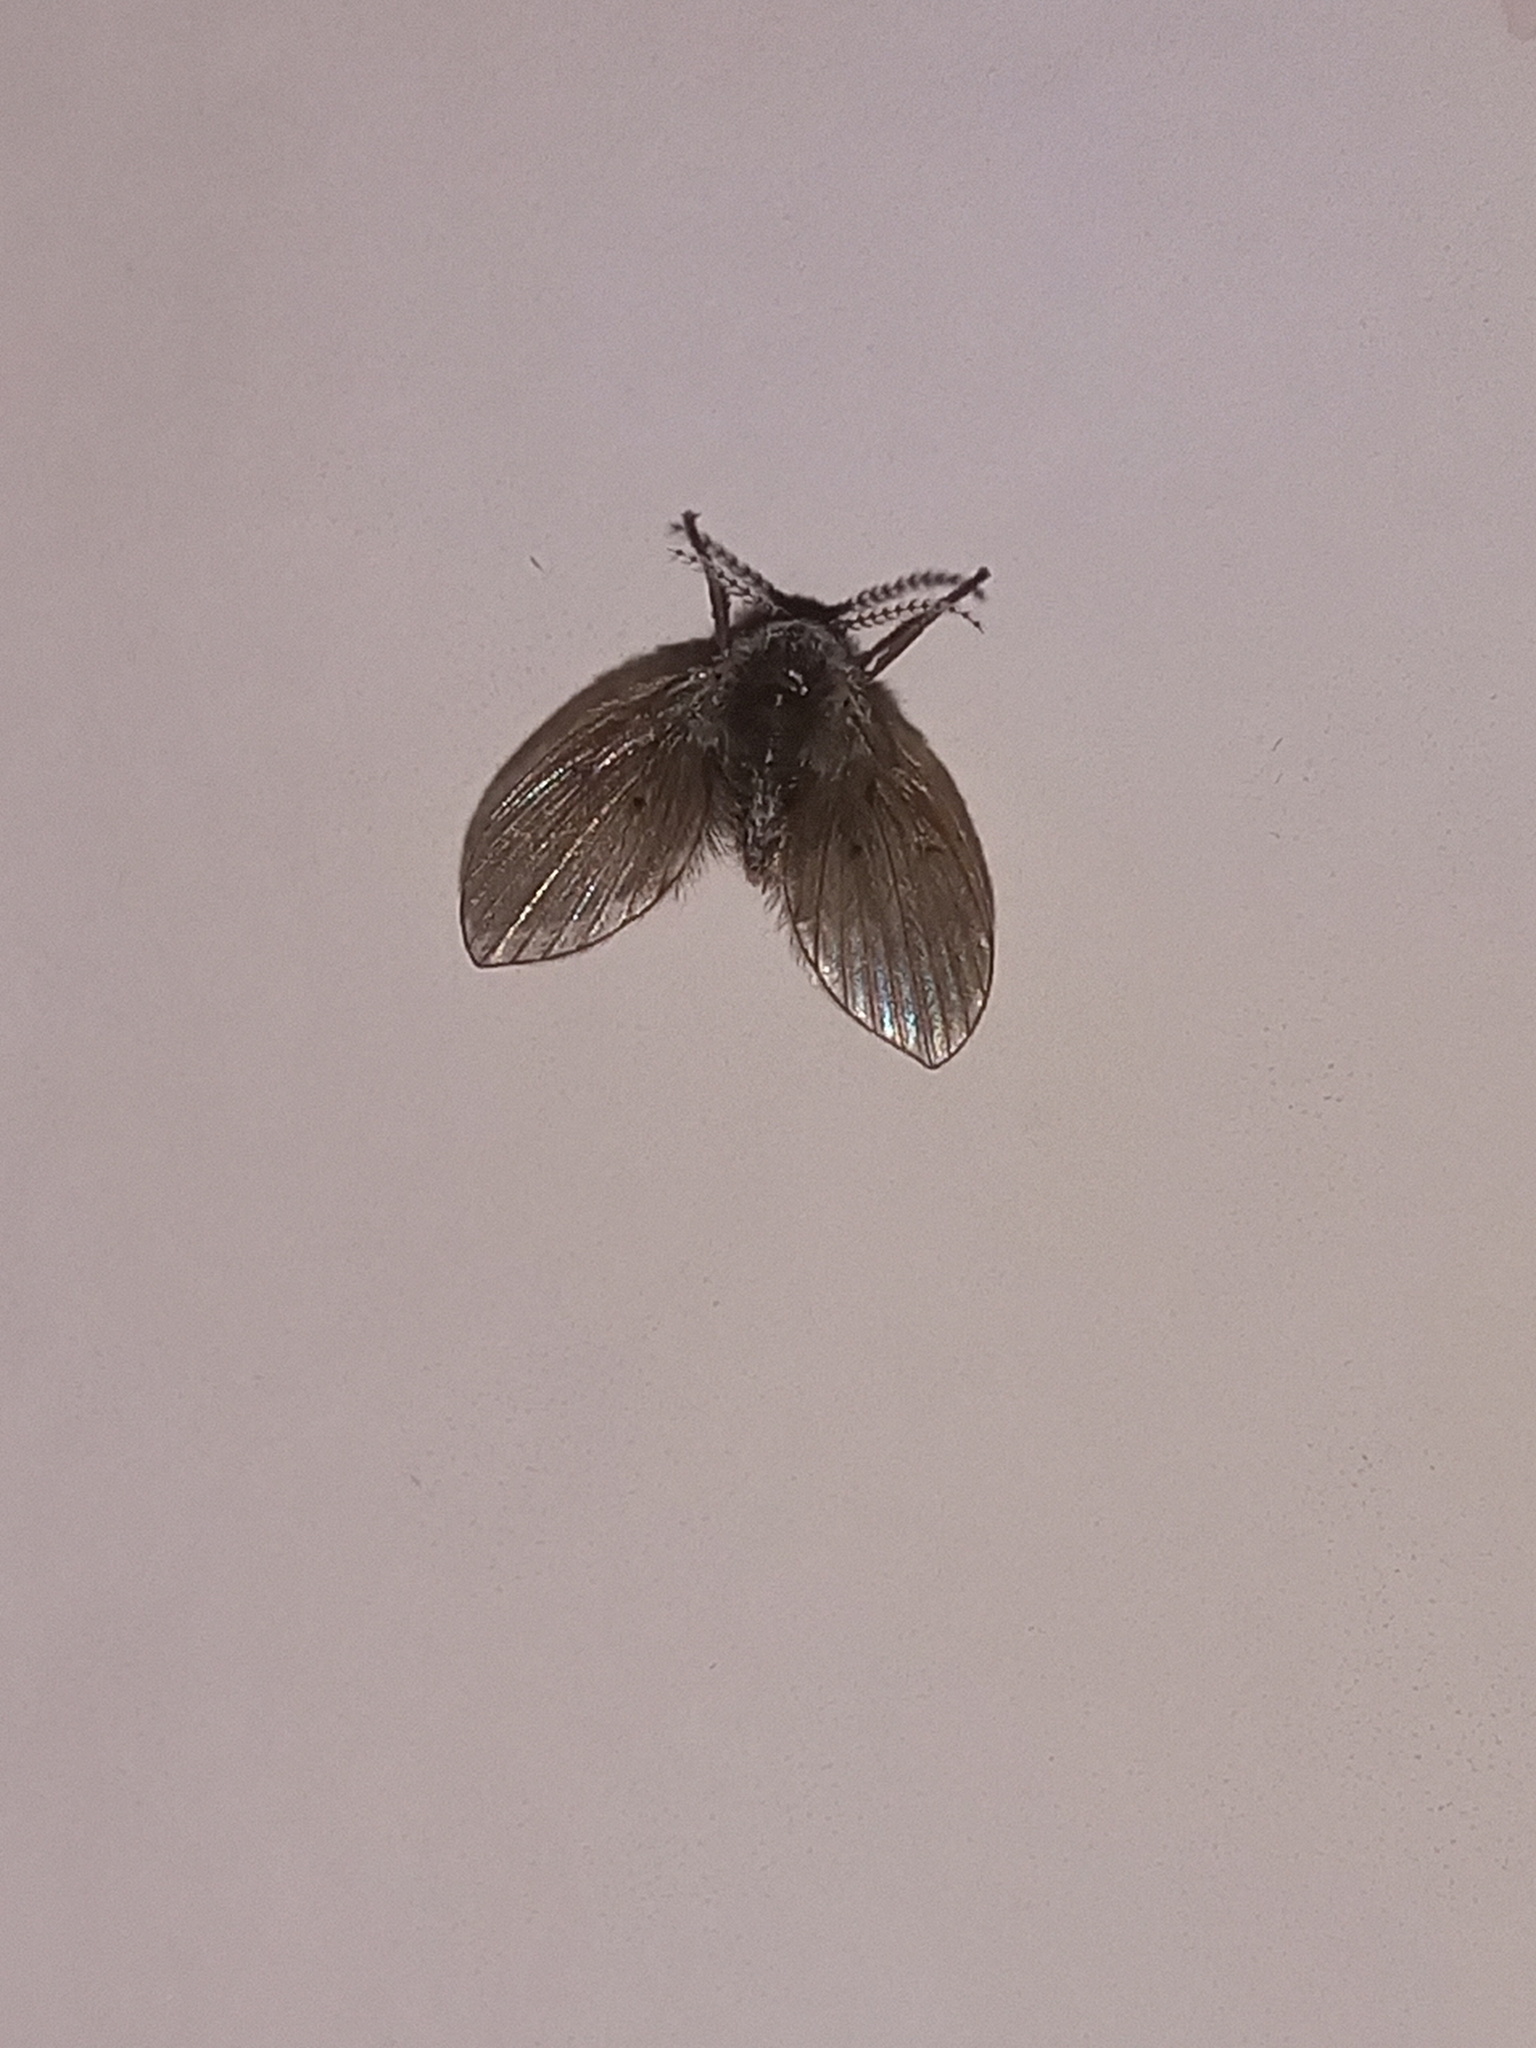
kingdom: Animalia
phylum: Arthropoda
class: Insecta
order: Diptera
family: Psychodidae
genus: Clogmia
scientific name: Clogmia albipunctatus
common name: White-spotted moth fly
